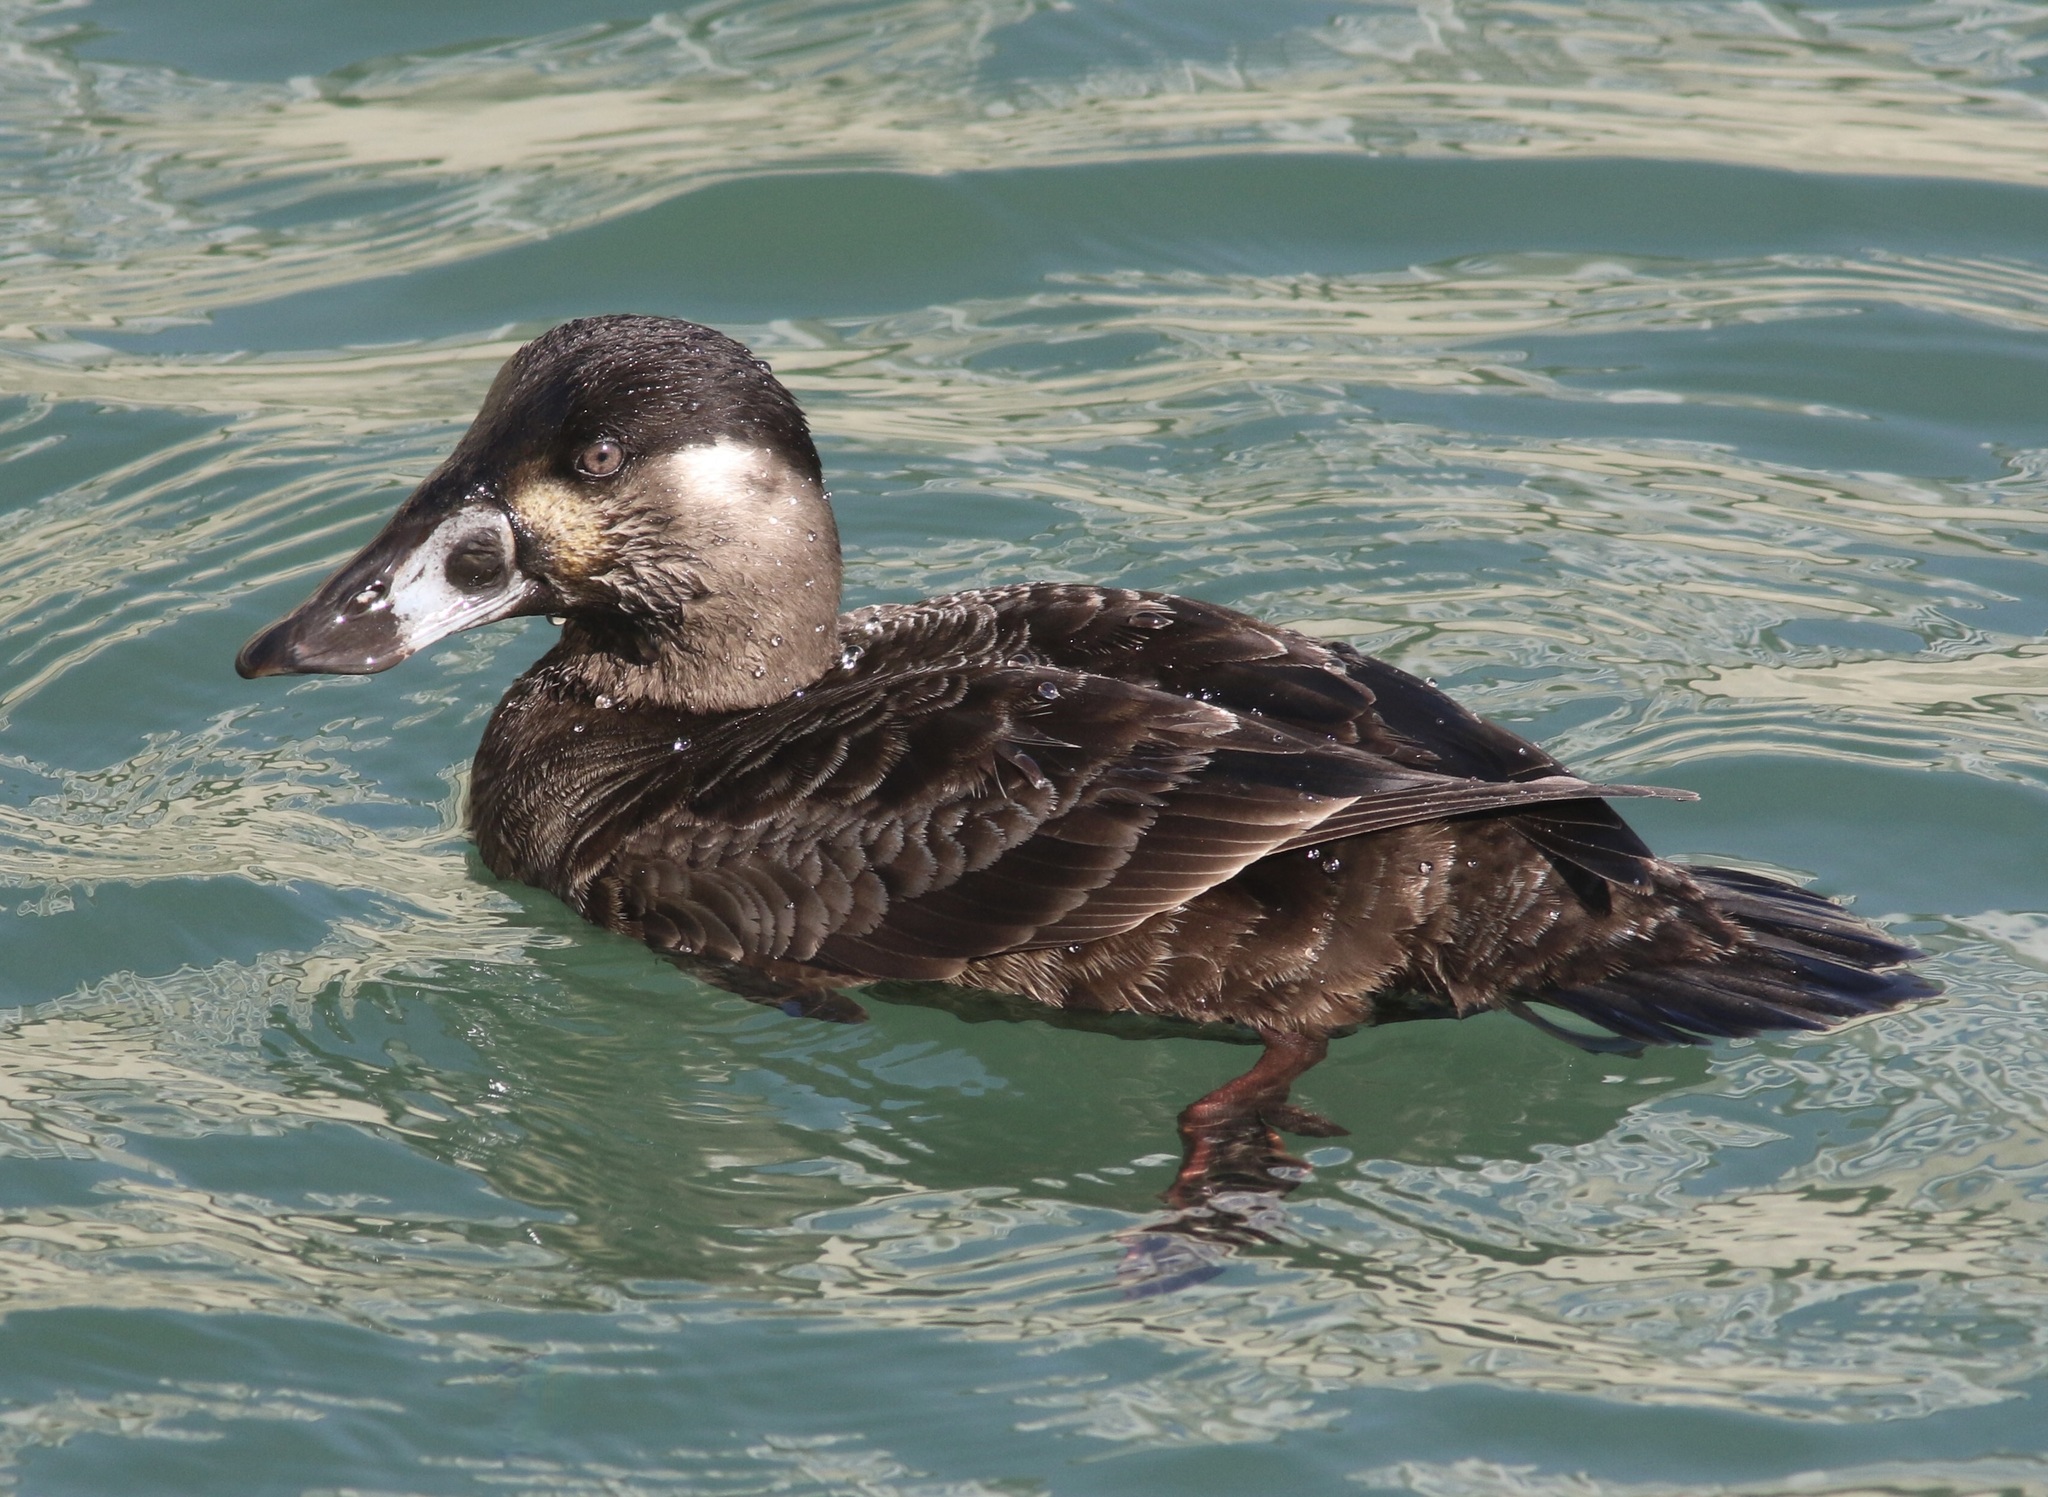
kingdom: Animalia
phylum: Chordata
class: Aves
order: Anseriformes
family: Anatidae
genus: Melanitta
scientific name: Melanitta perspicillata
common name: Surf scoter
